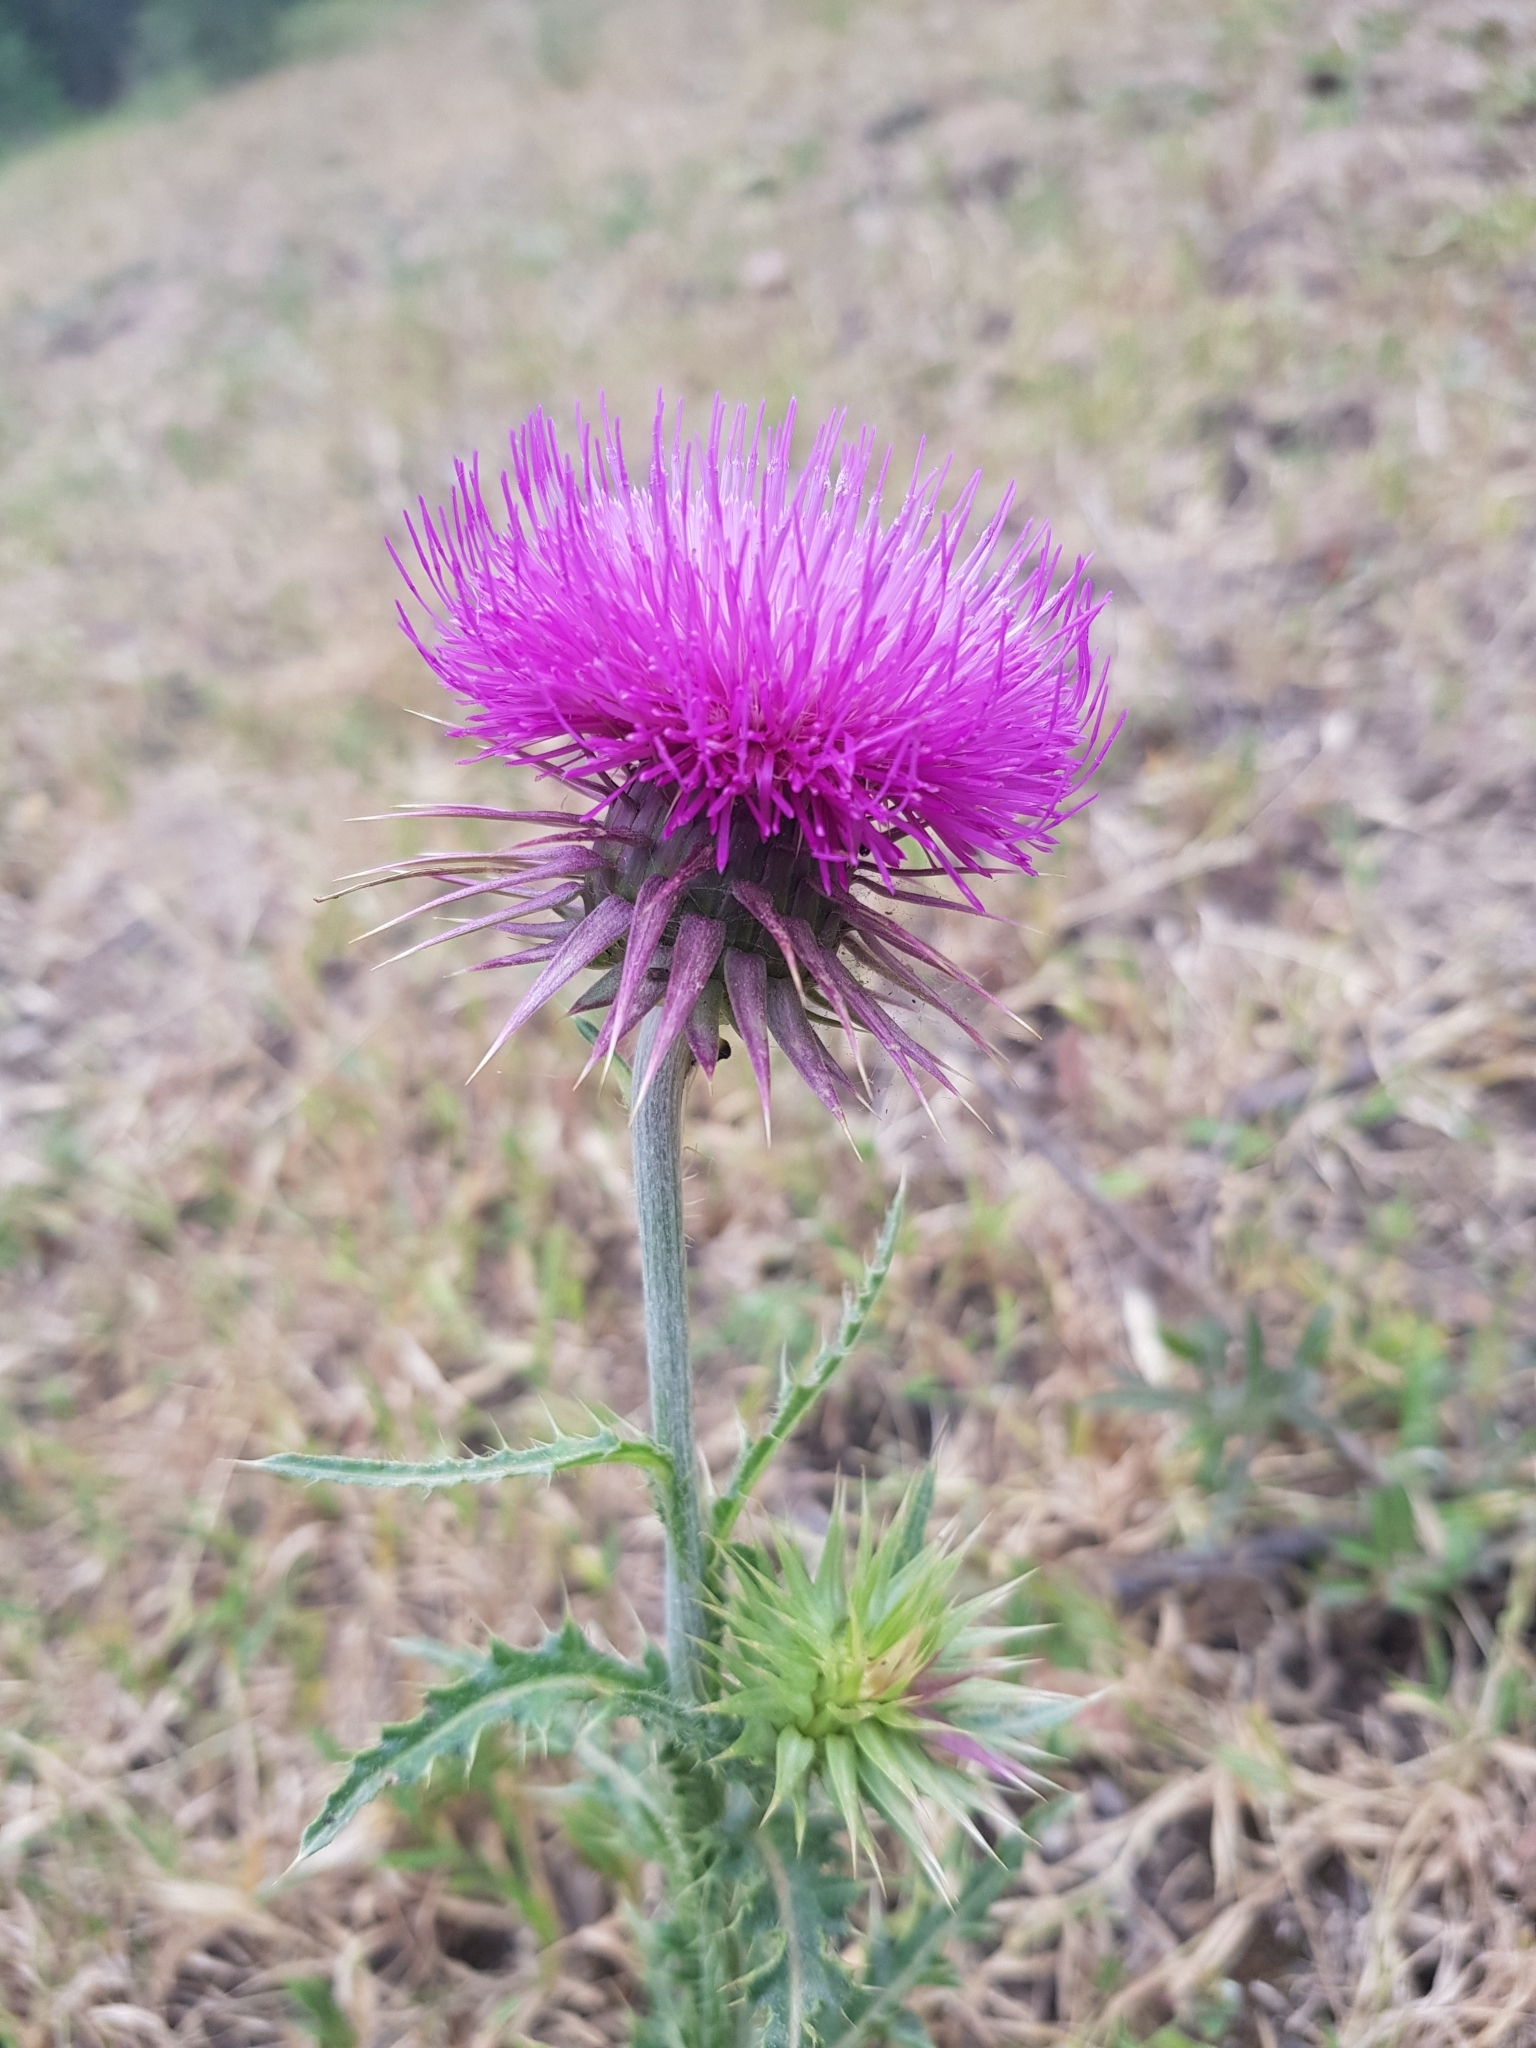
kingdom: Plantae
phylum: Tracheophyta
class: Magnoliopsida
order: Asterales
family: Asteraceae
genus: Carduus
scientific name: Carduus macrocephalus
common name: Giant thistle
